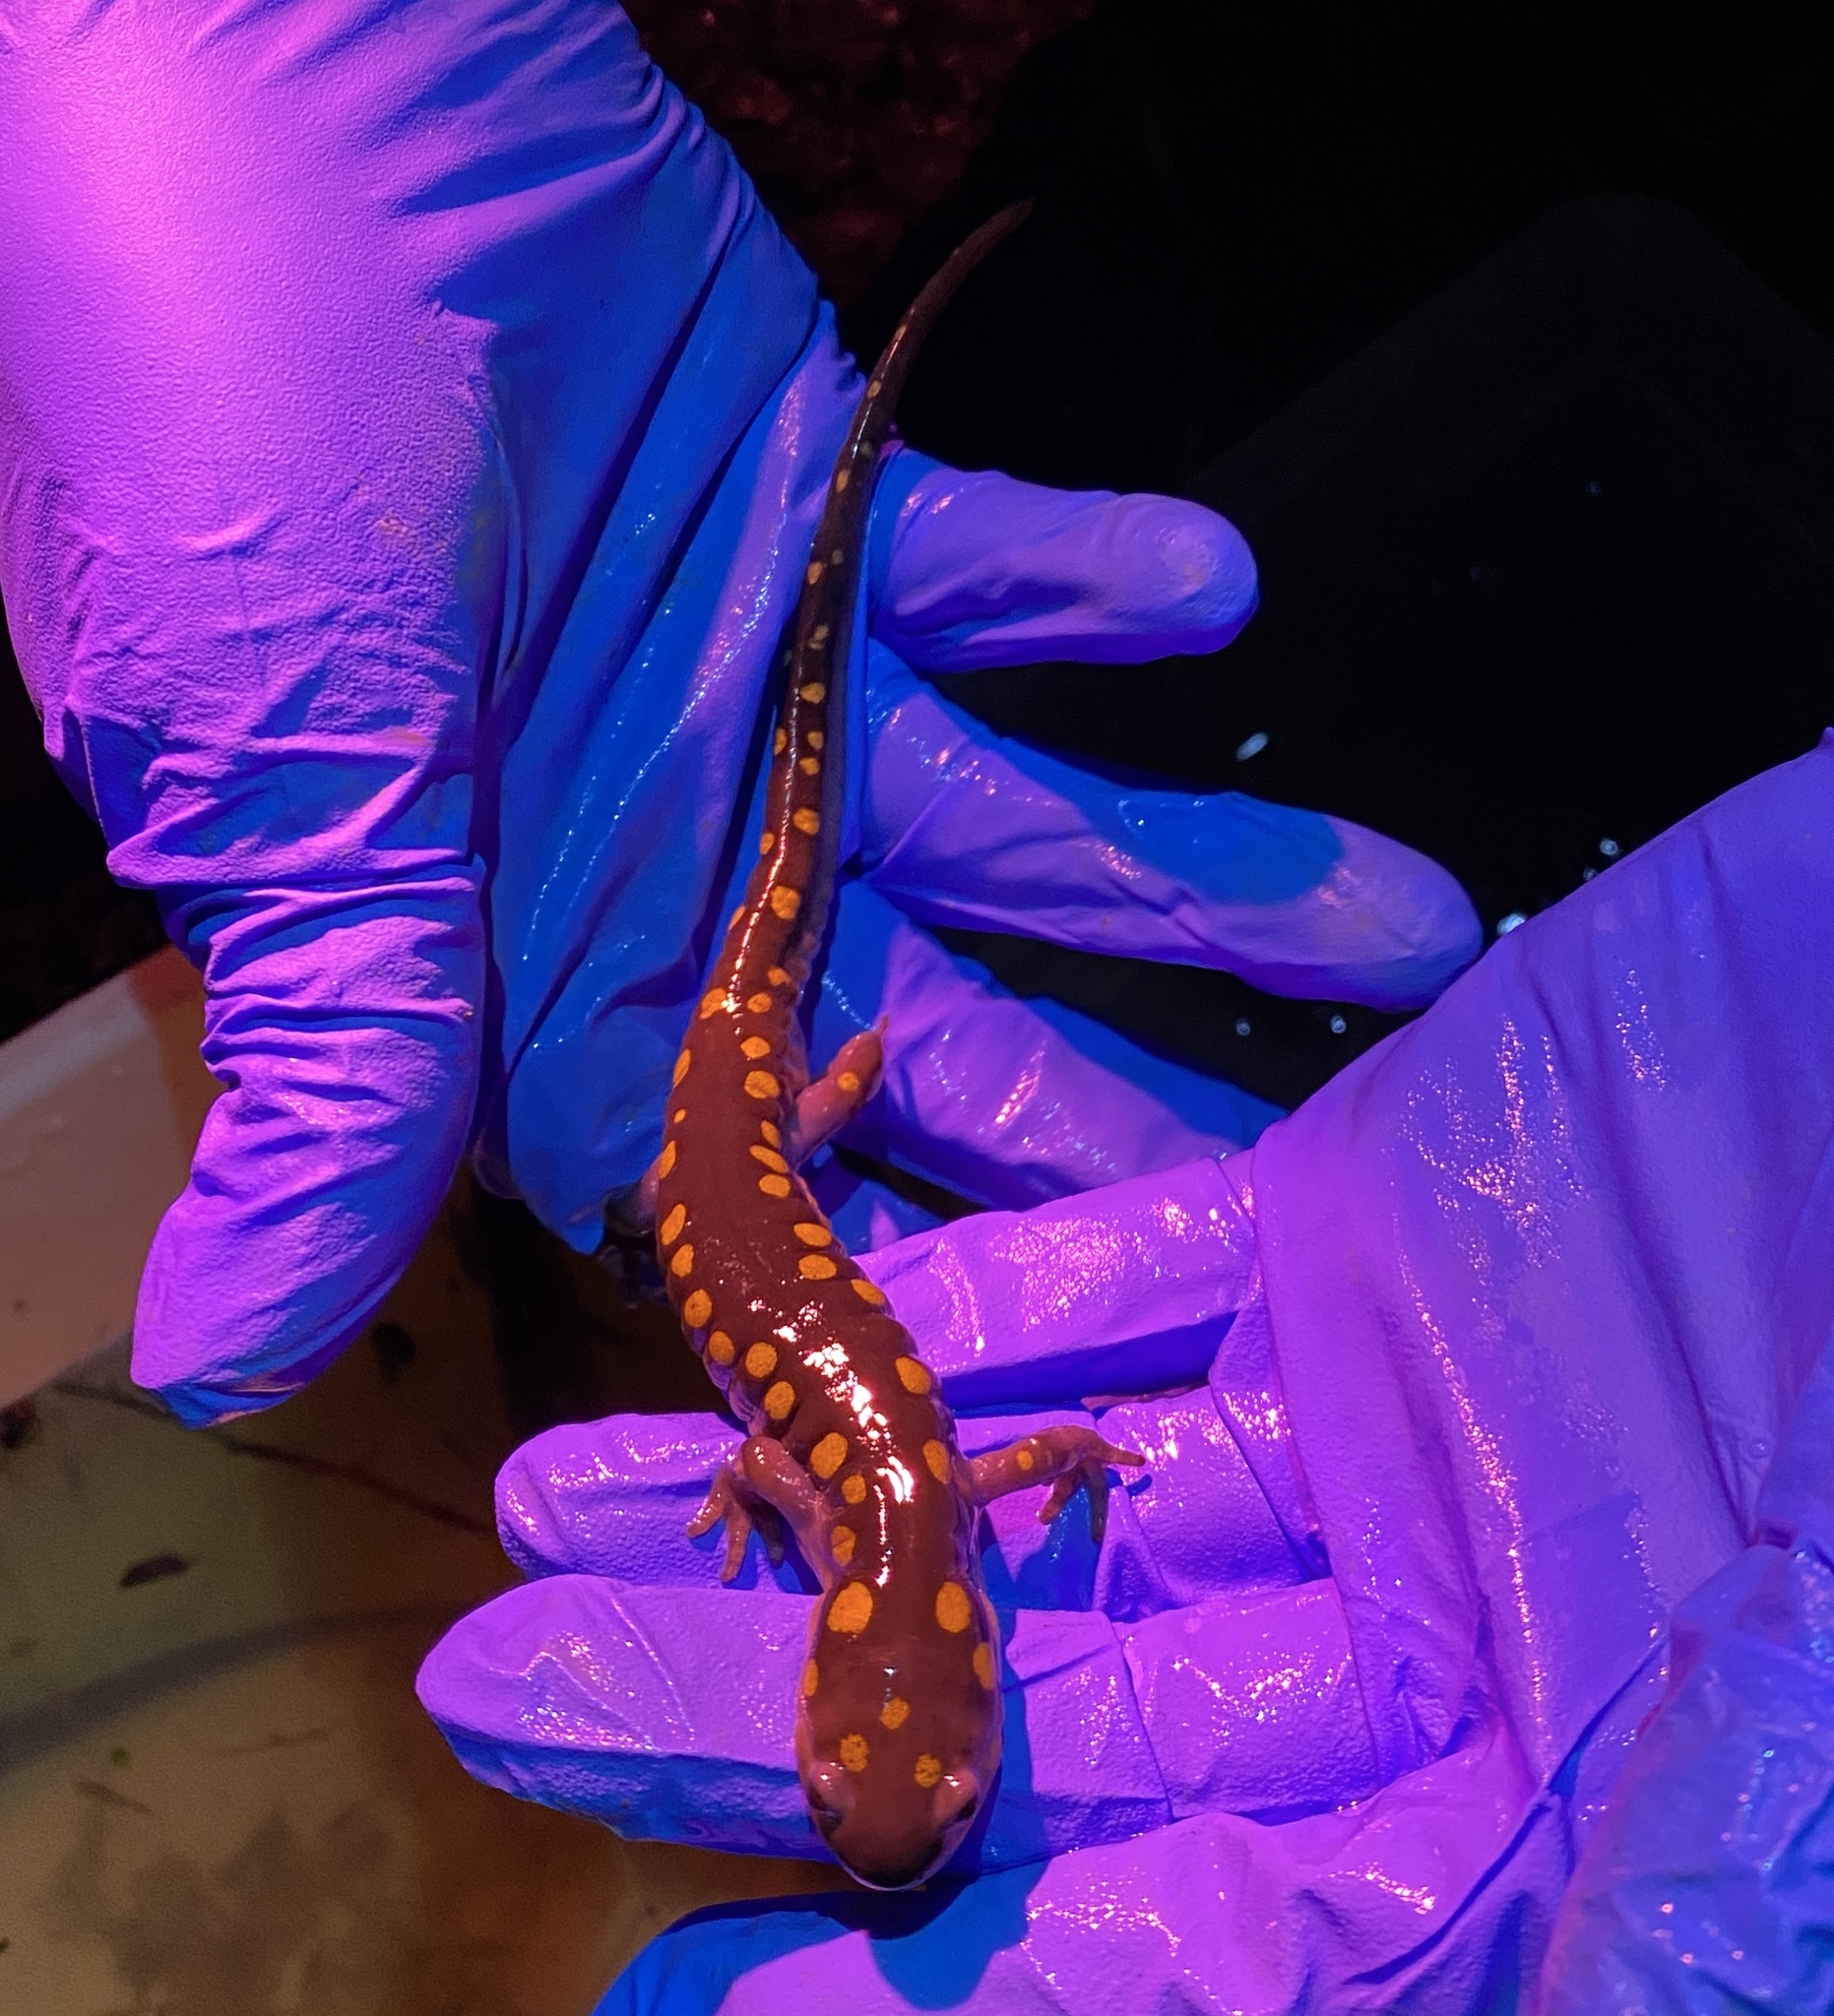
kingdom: Animalia
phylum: Chordata
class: Amphibia
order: Caudata
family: Ambystomatidae
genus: Ambystoma
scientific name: Ambystoma maculatum
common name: Spotted salamander
